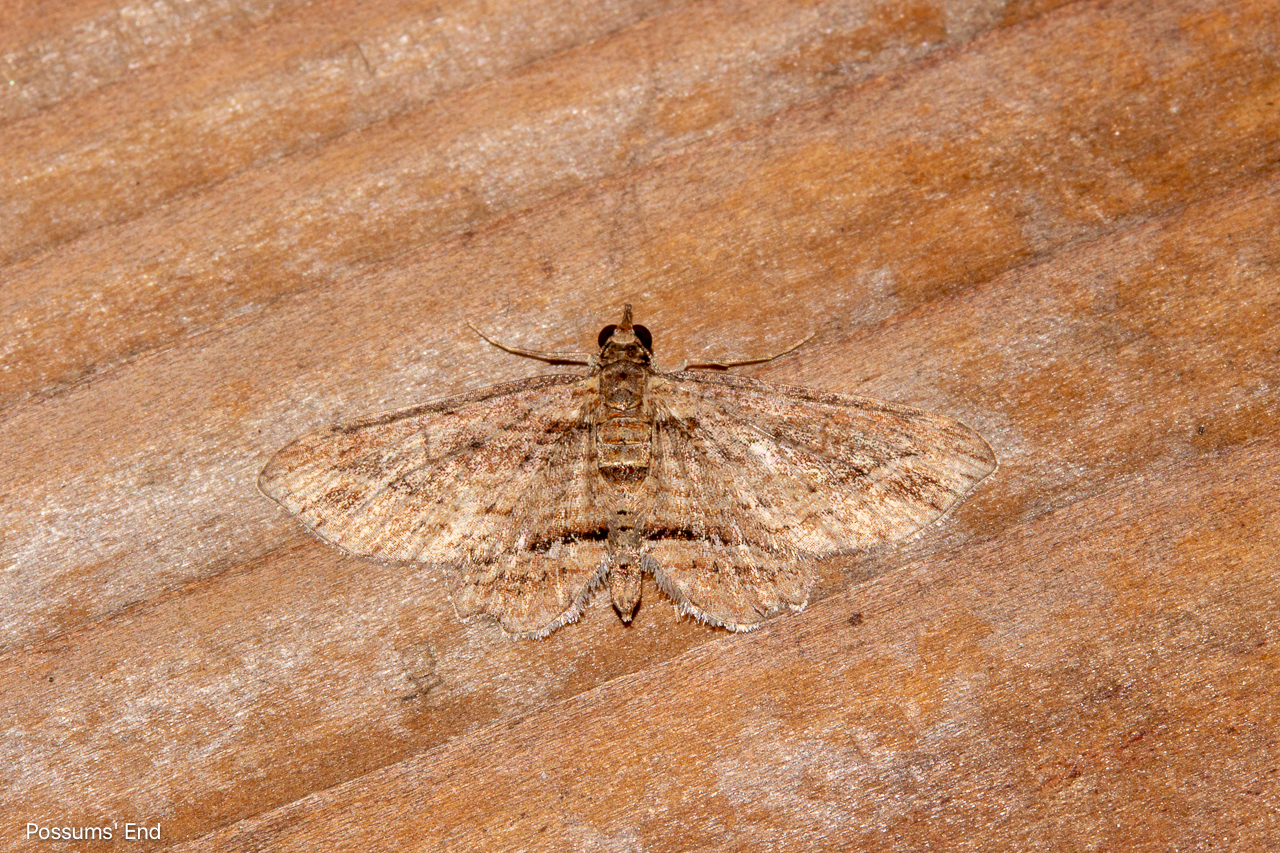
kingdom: Animalia
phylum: Arthropoda
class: Insecta
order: Lepidoptera
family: Geometridae
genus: Chloroclystis
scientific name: Chloroclystis filata
